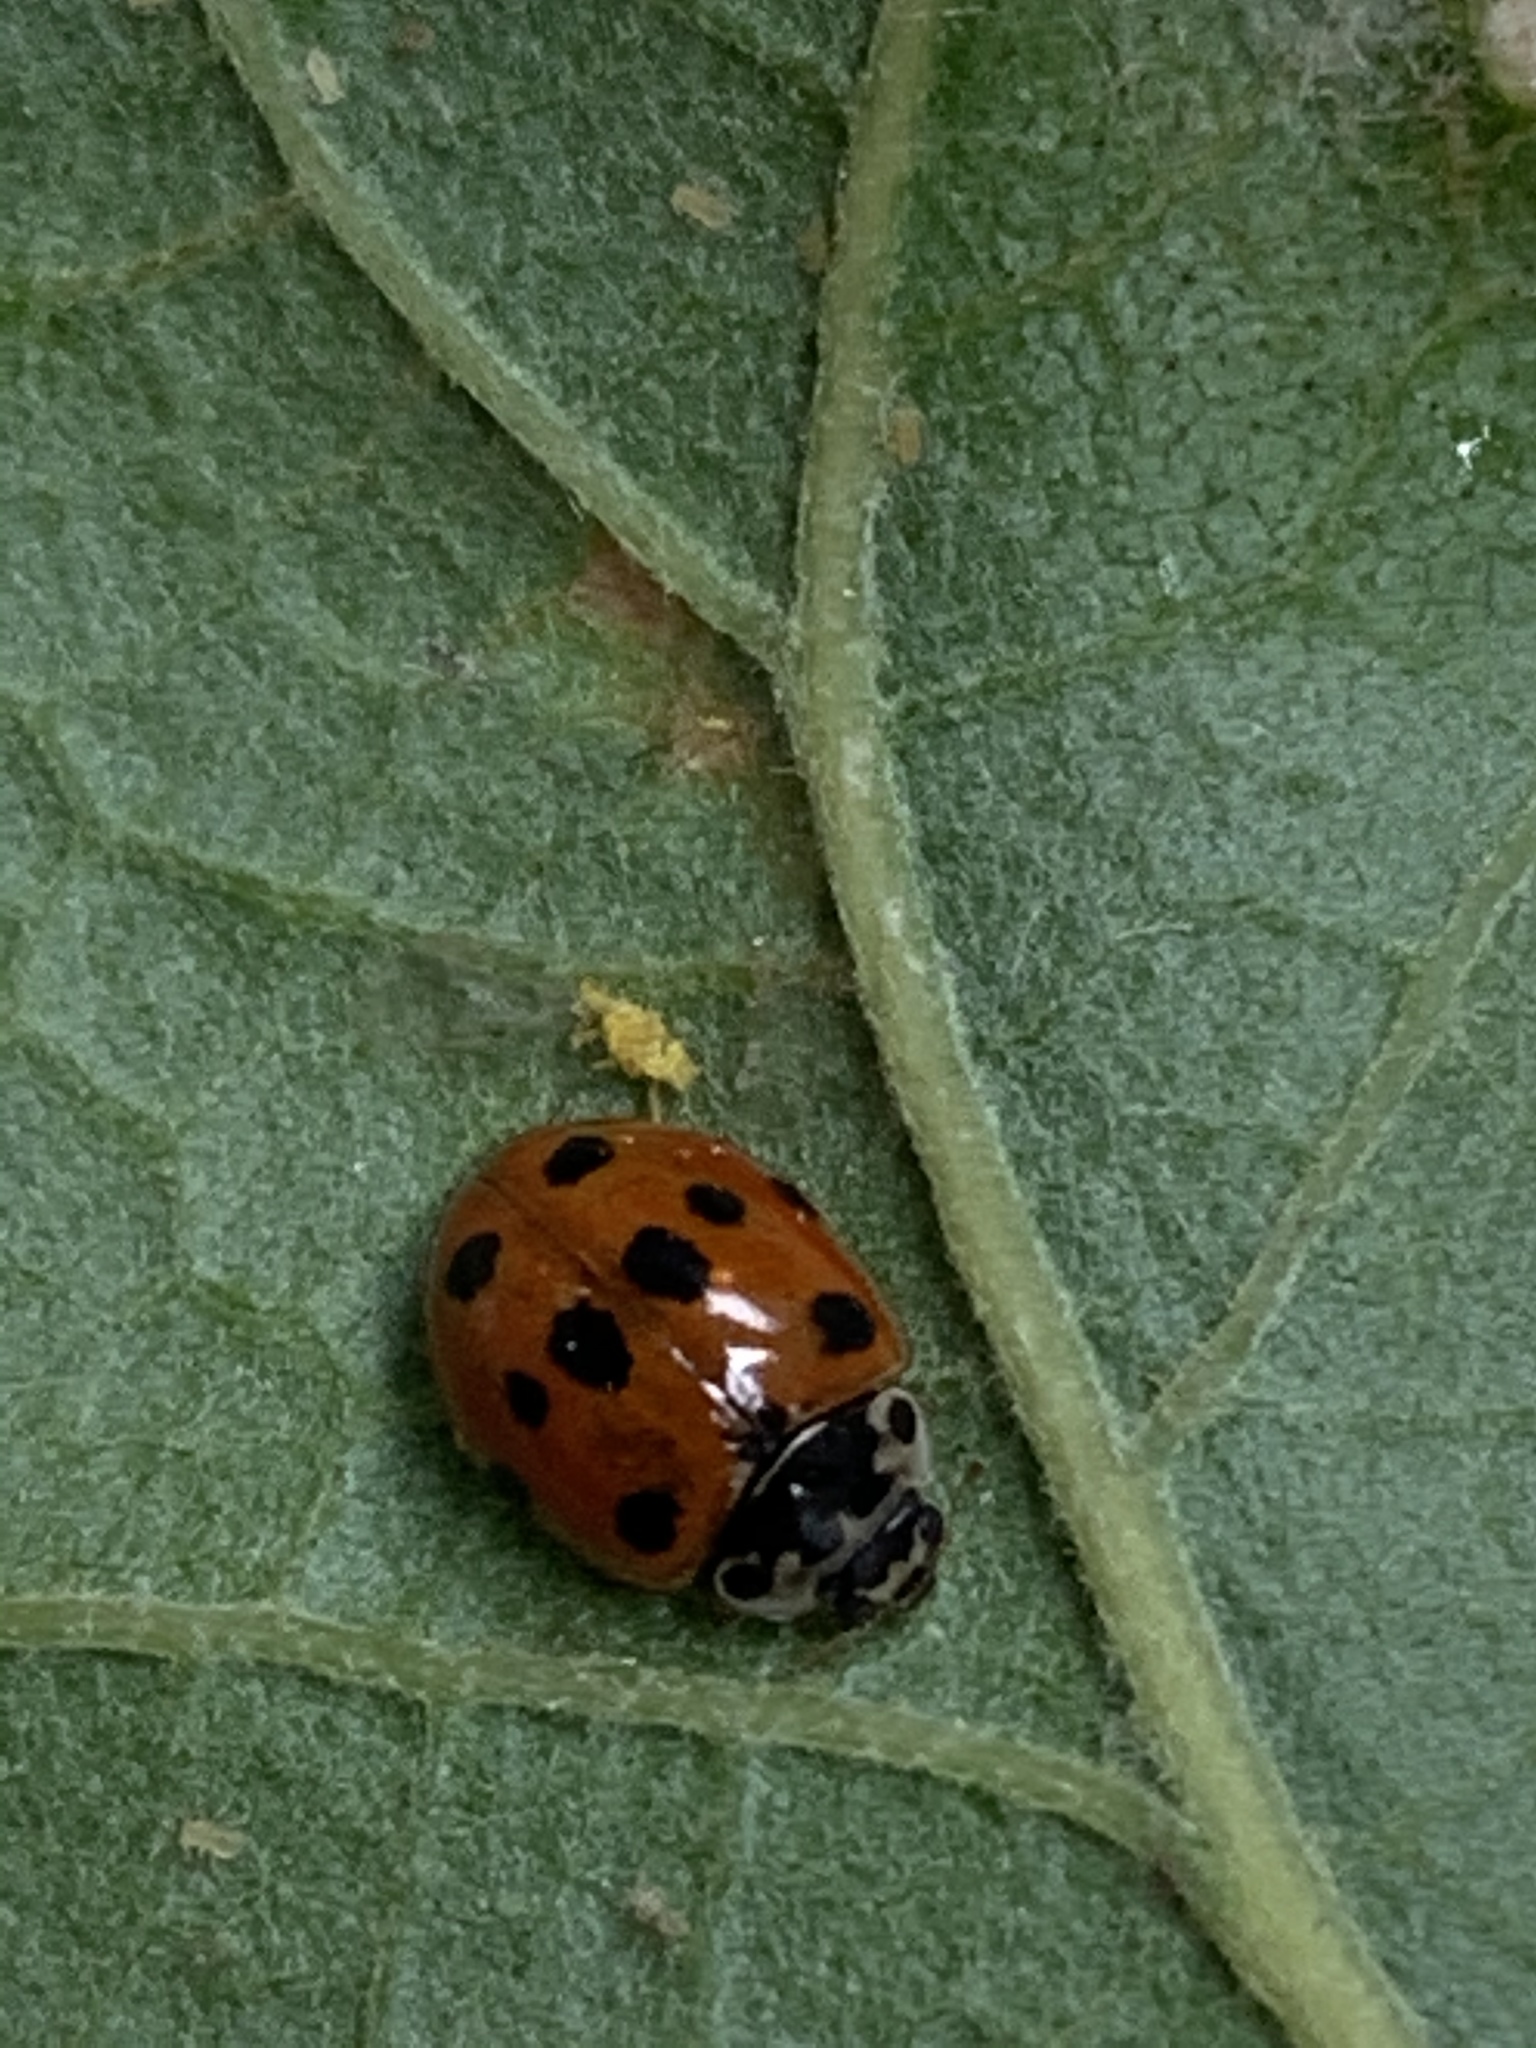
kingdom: Animalia
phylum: Arthropoda
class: Insecta
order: Coleoptera
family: Coccinellidae
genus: Anatis
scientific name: Anatis ocellata
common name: Eyed ladybird
